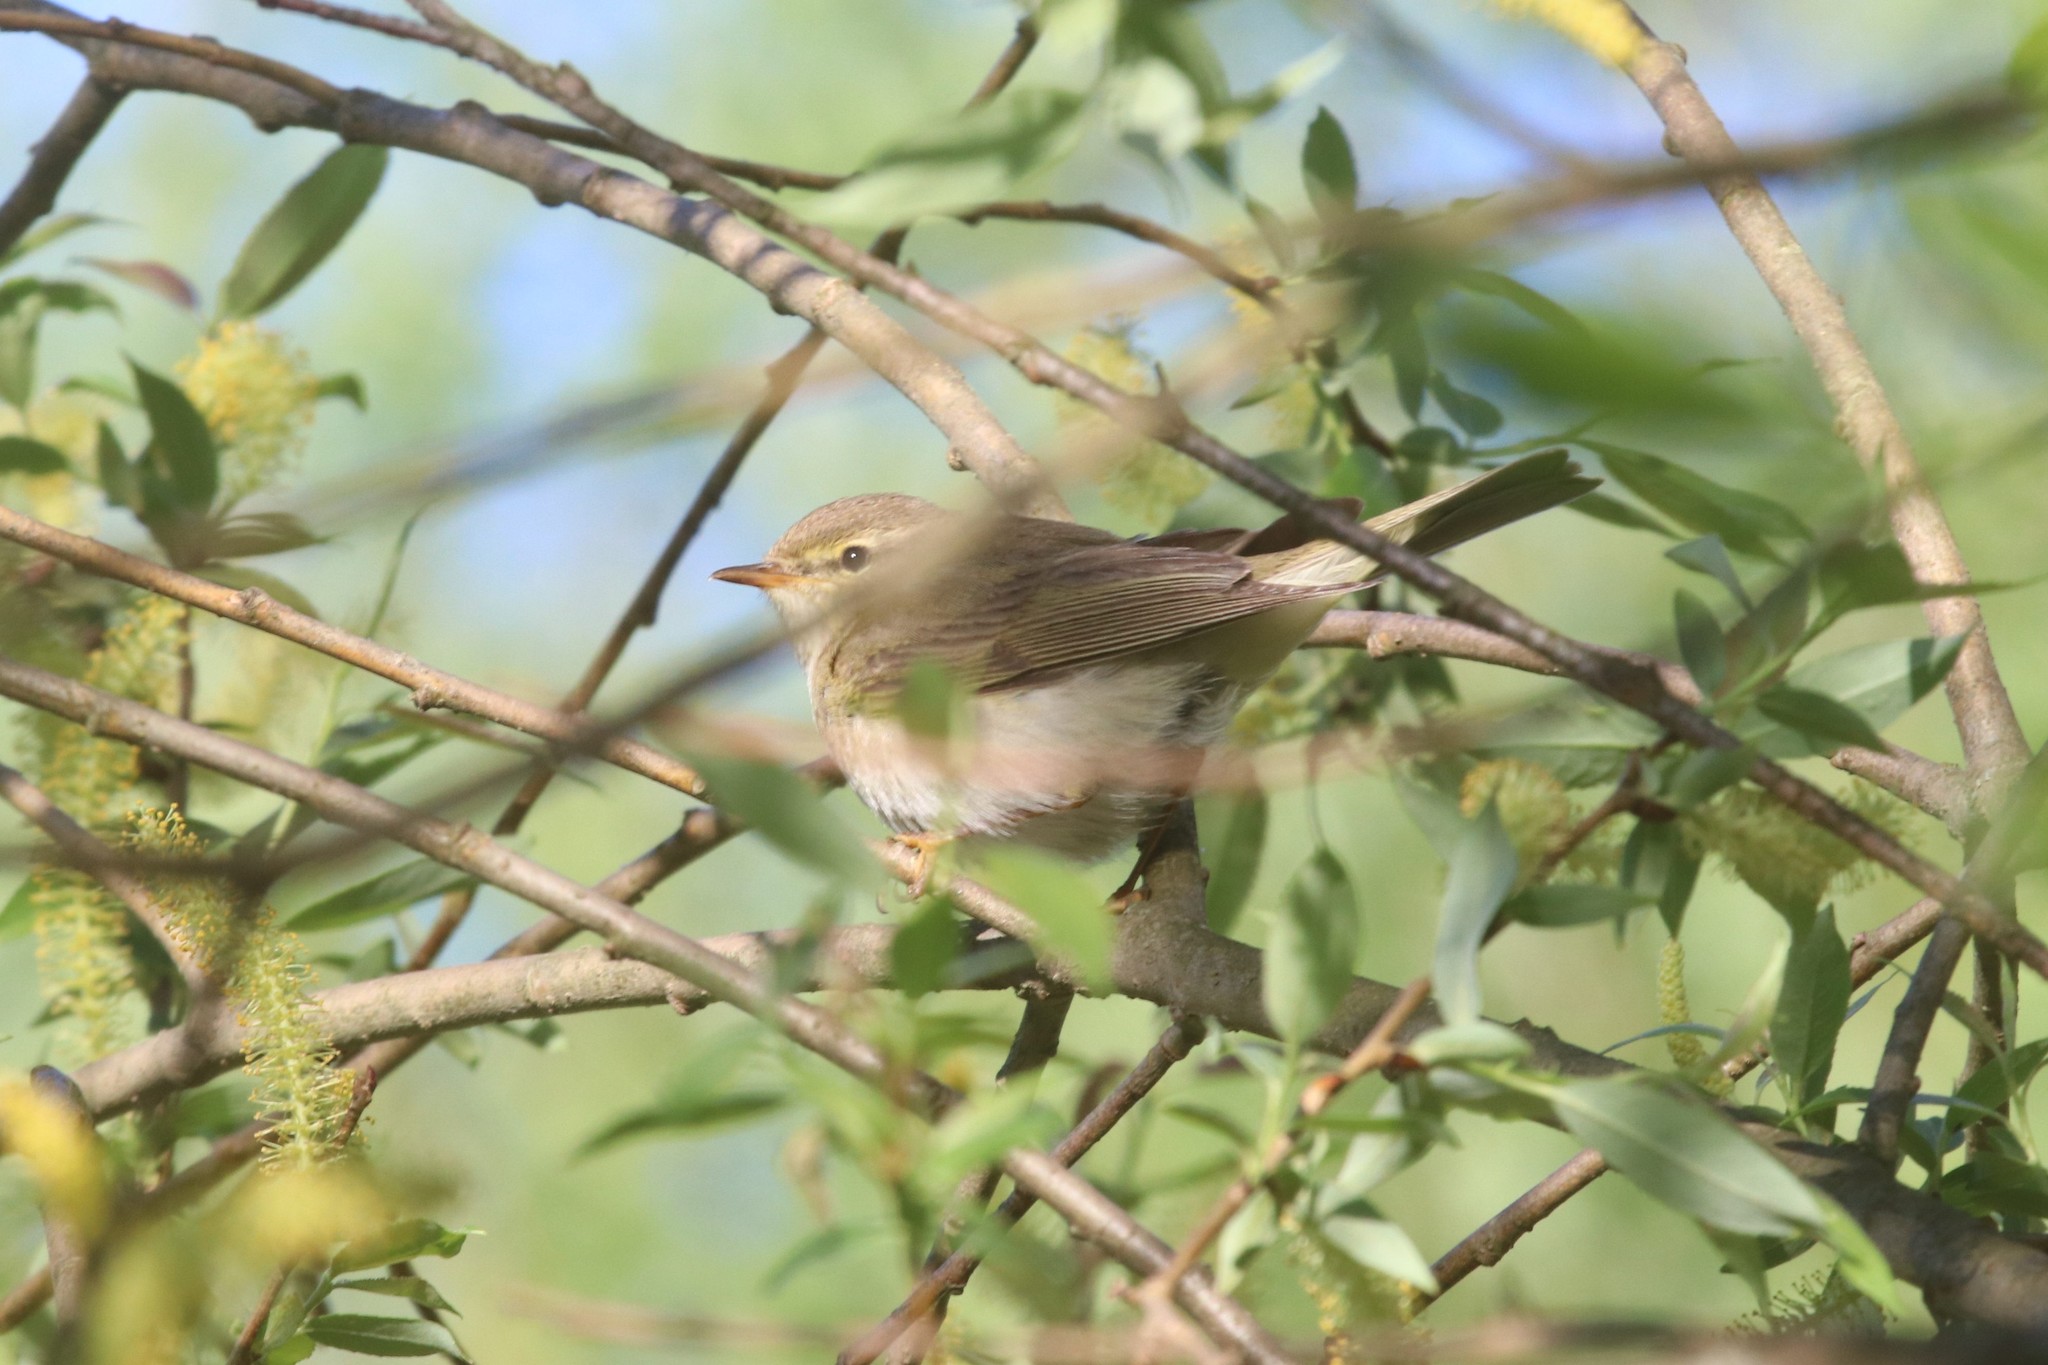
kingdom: Animalia
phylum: Chordata
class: Aves
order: Passeriformes
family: Phylloscopidae
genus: Phylloscopus
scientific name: Phylloscopus trochilus
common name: Willow warbler
